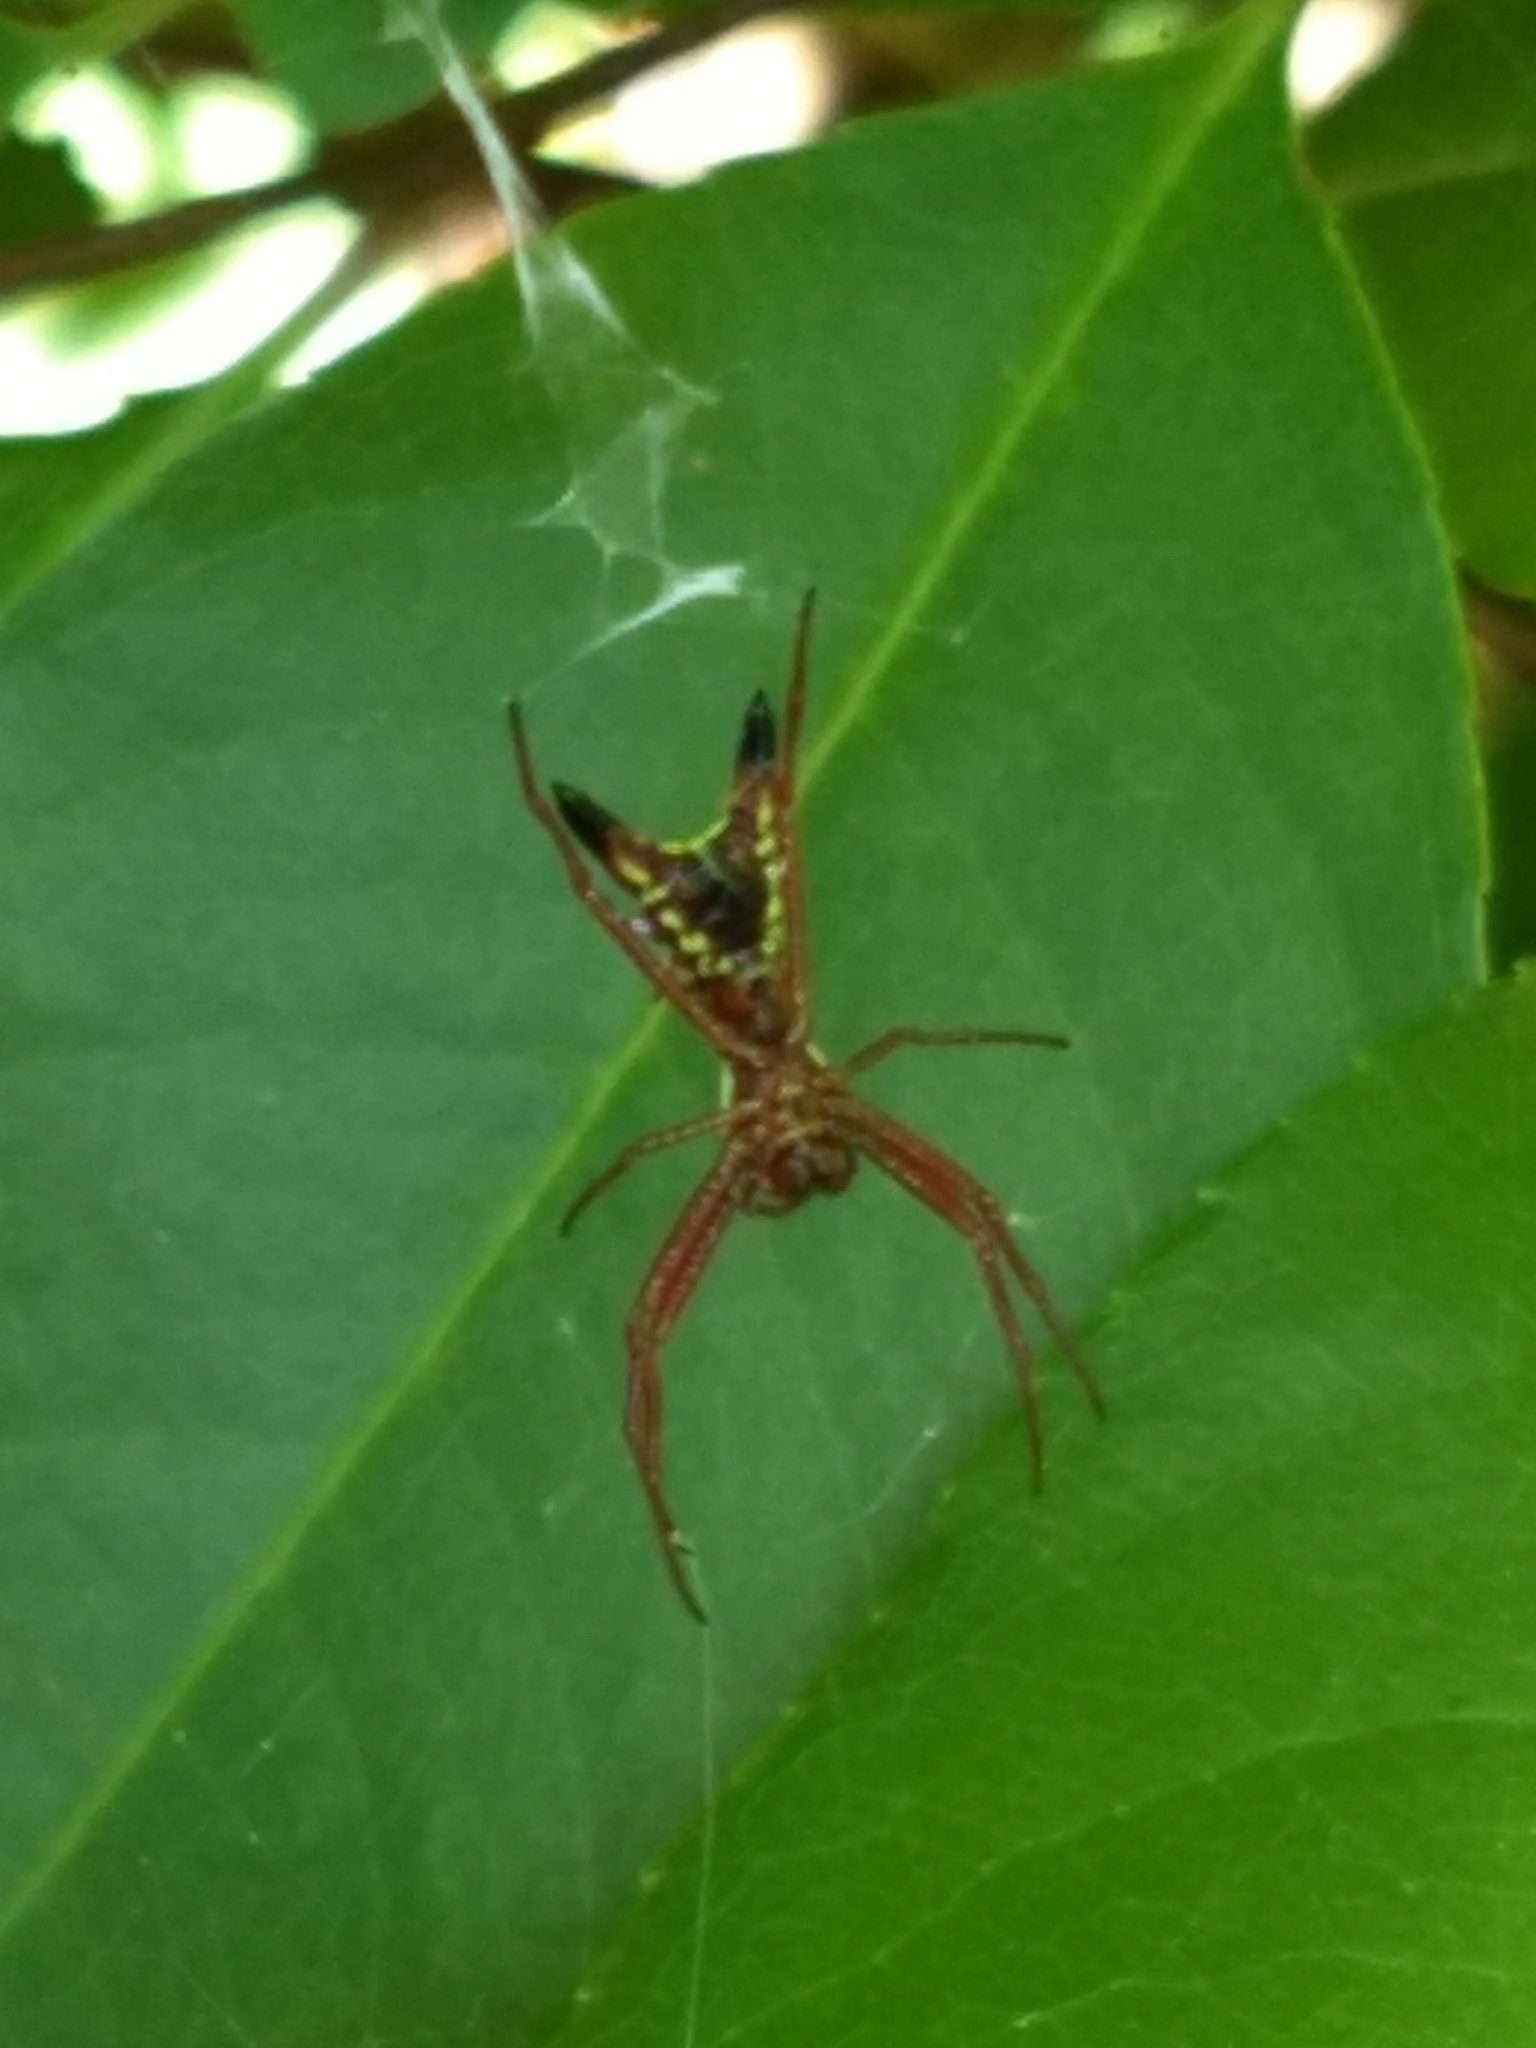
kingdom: Animalia
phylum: Arthropoda
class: Arachnida
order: Araneae
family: Araneidae
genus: Micrathena
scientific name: Micrathena sagittata
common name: Orb weavers
